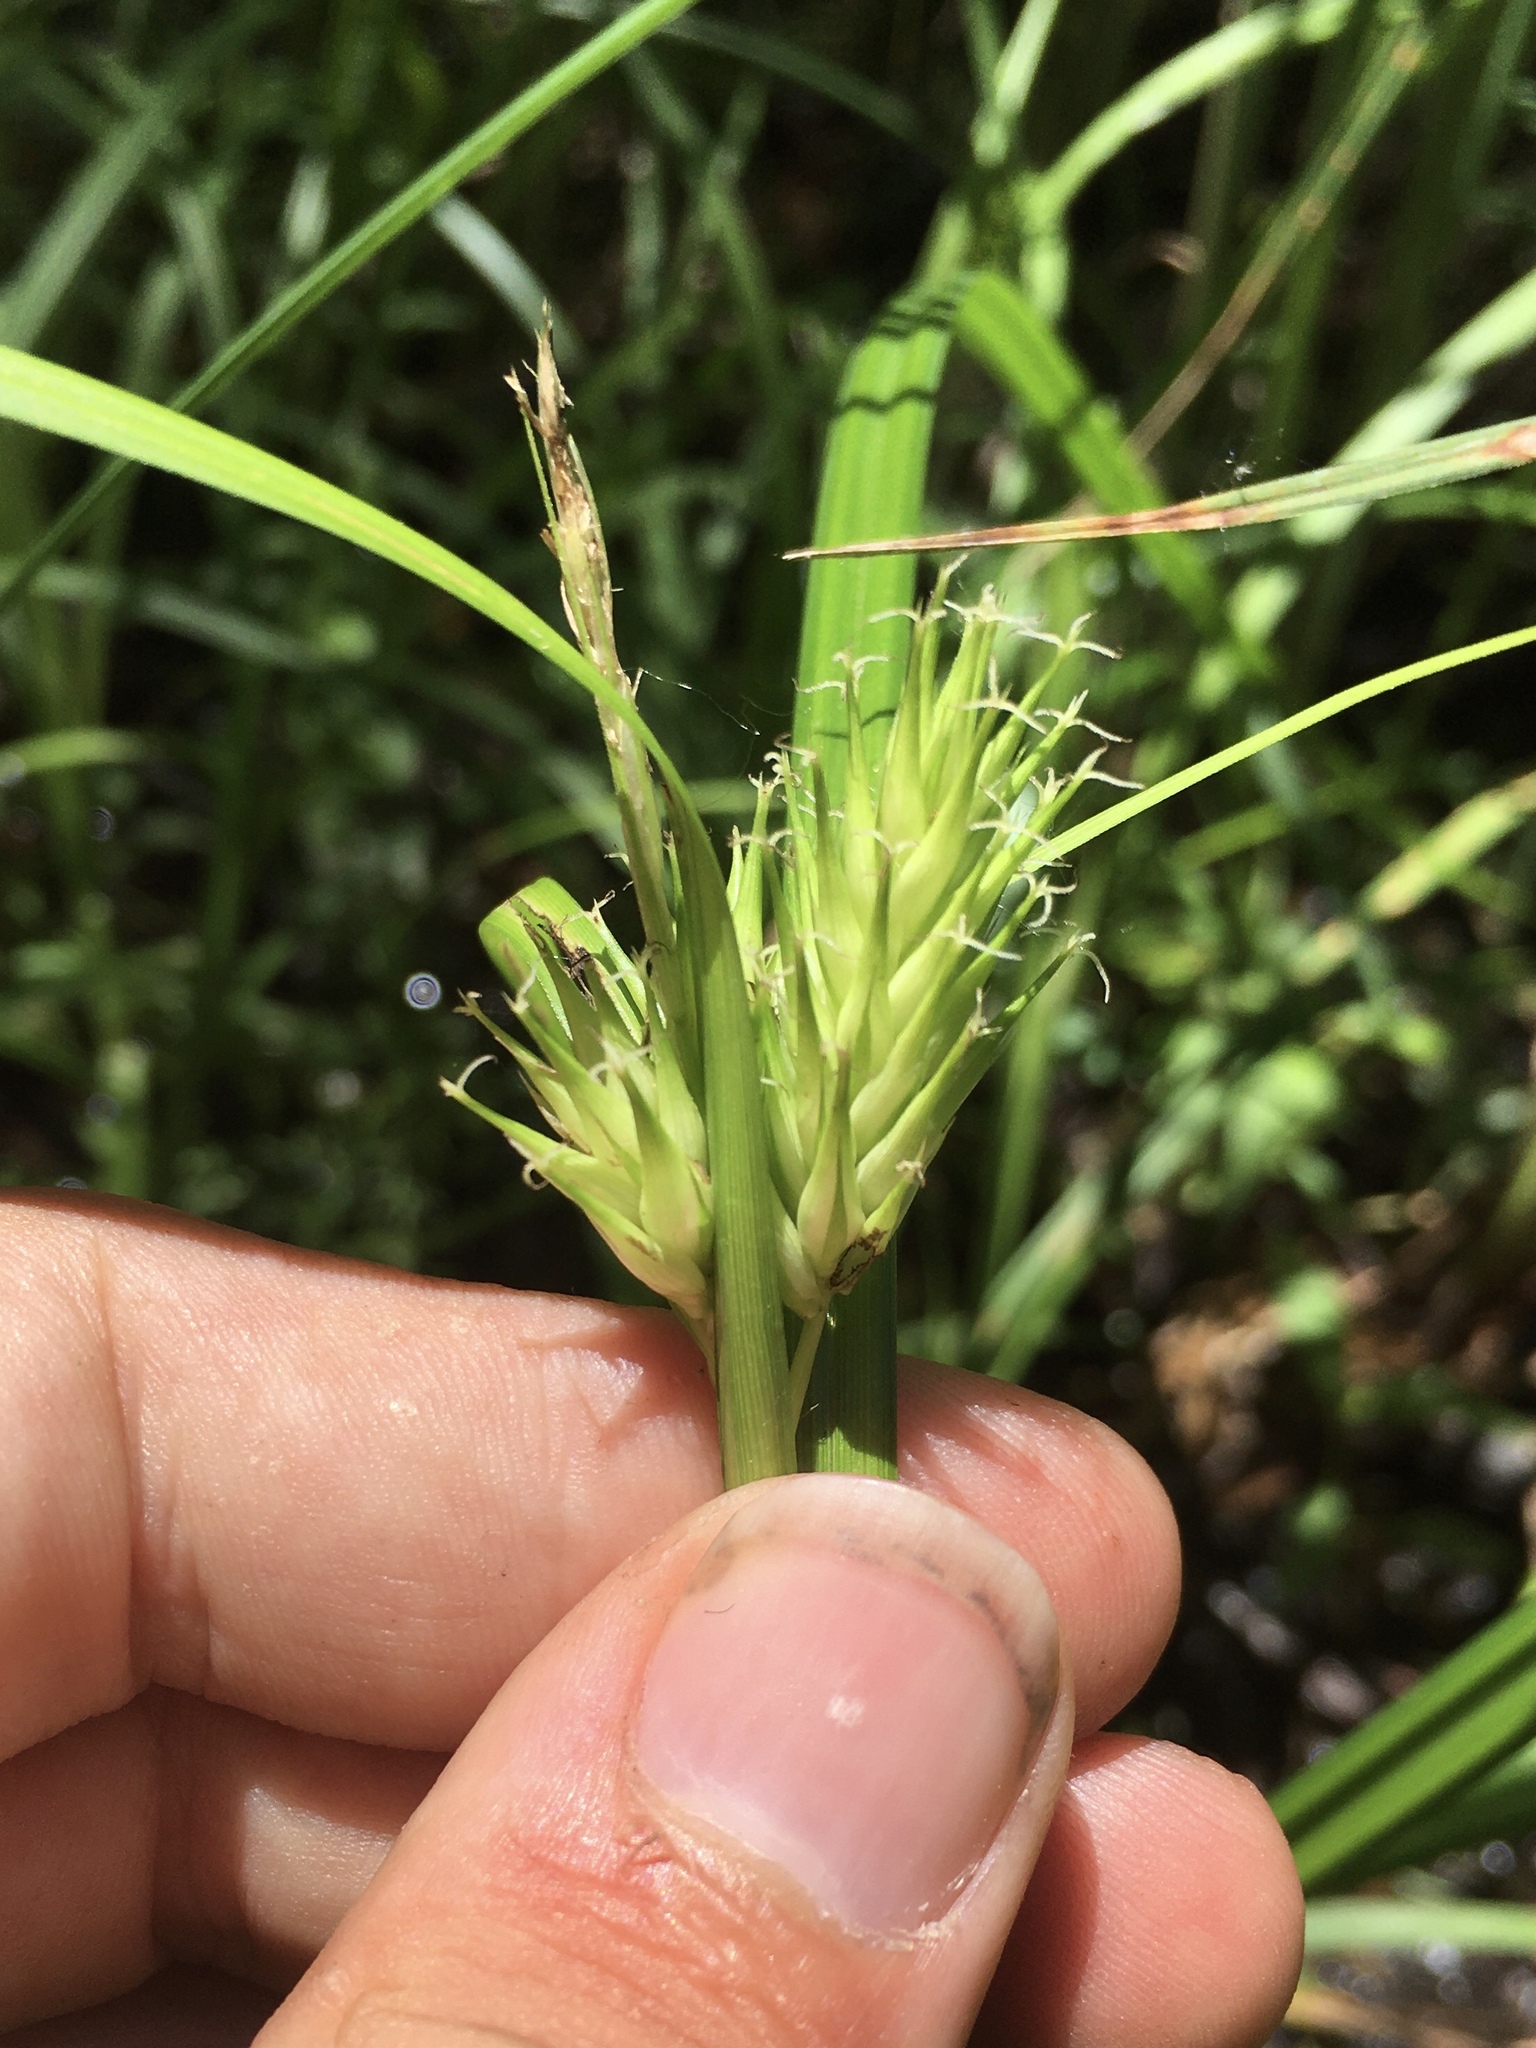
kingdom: Plantae
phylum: Tracheophyta
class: Liliopsida
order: Poales
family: Cyperaceae
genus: Carex
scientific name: Carex lupulina
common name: Hop sedge
